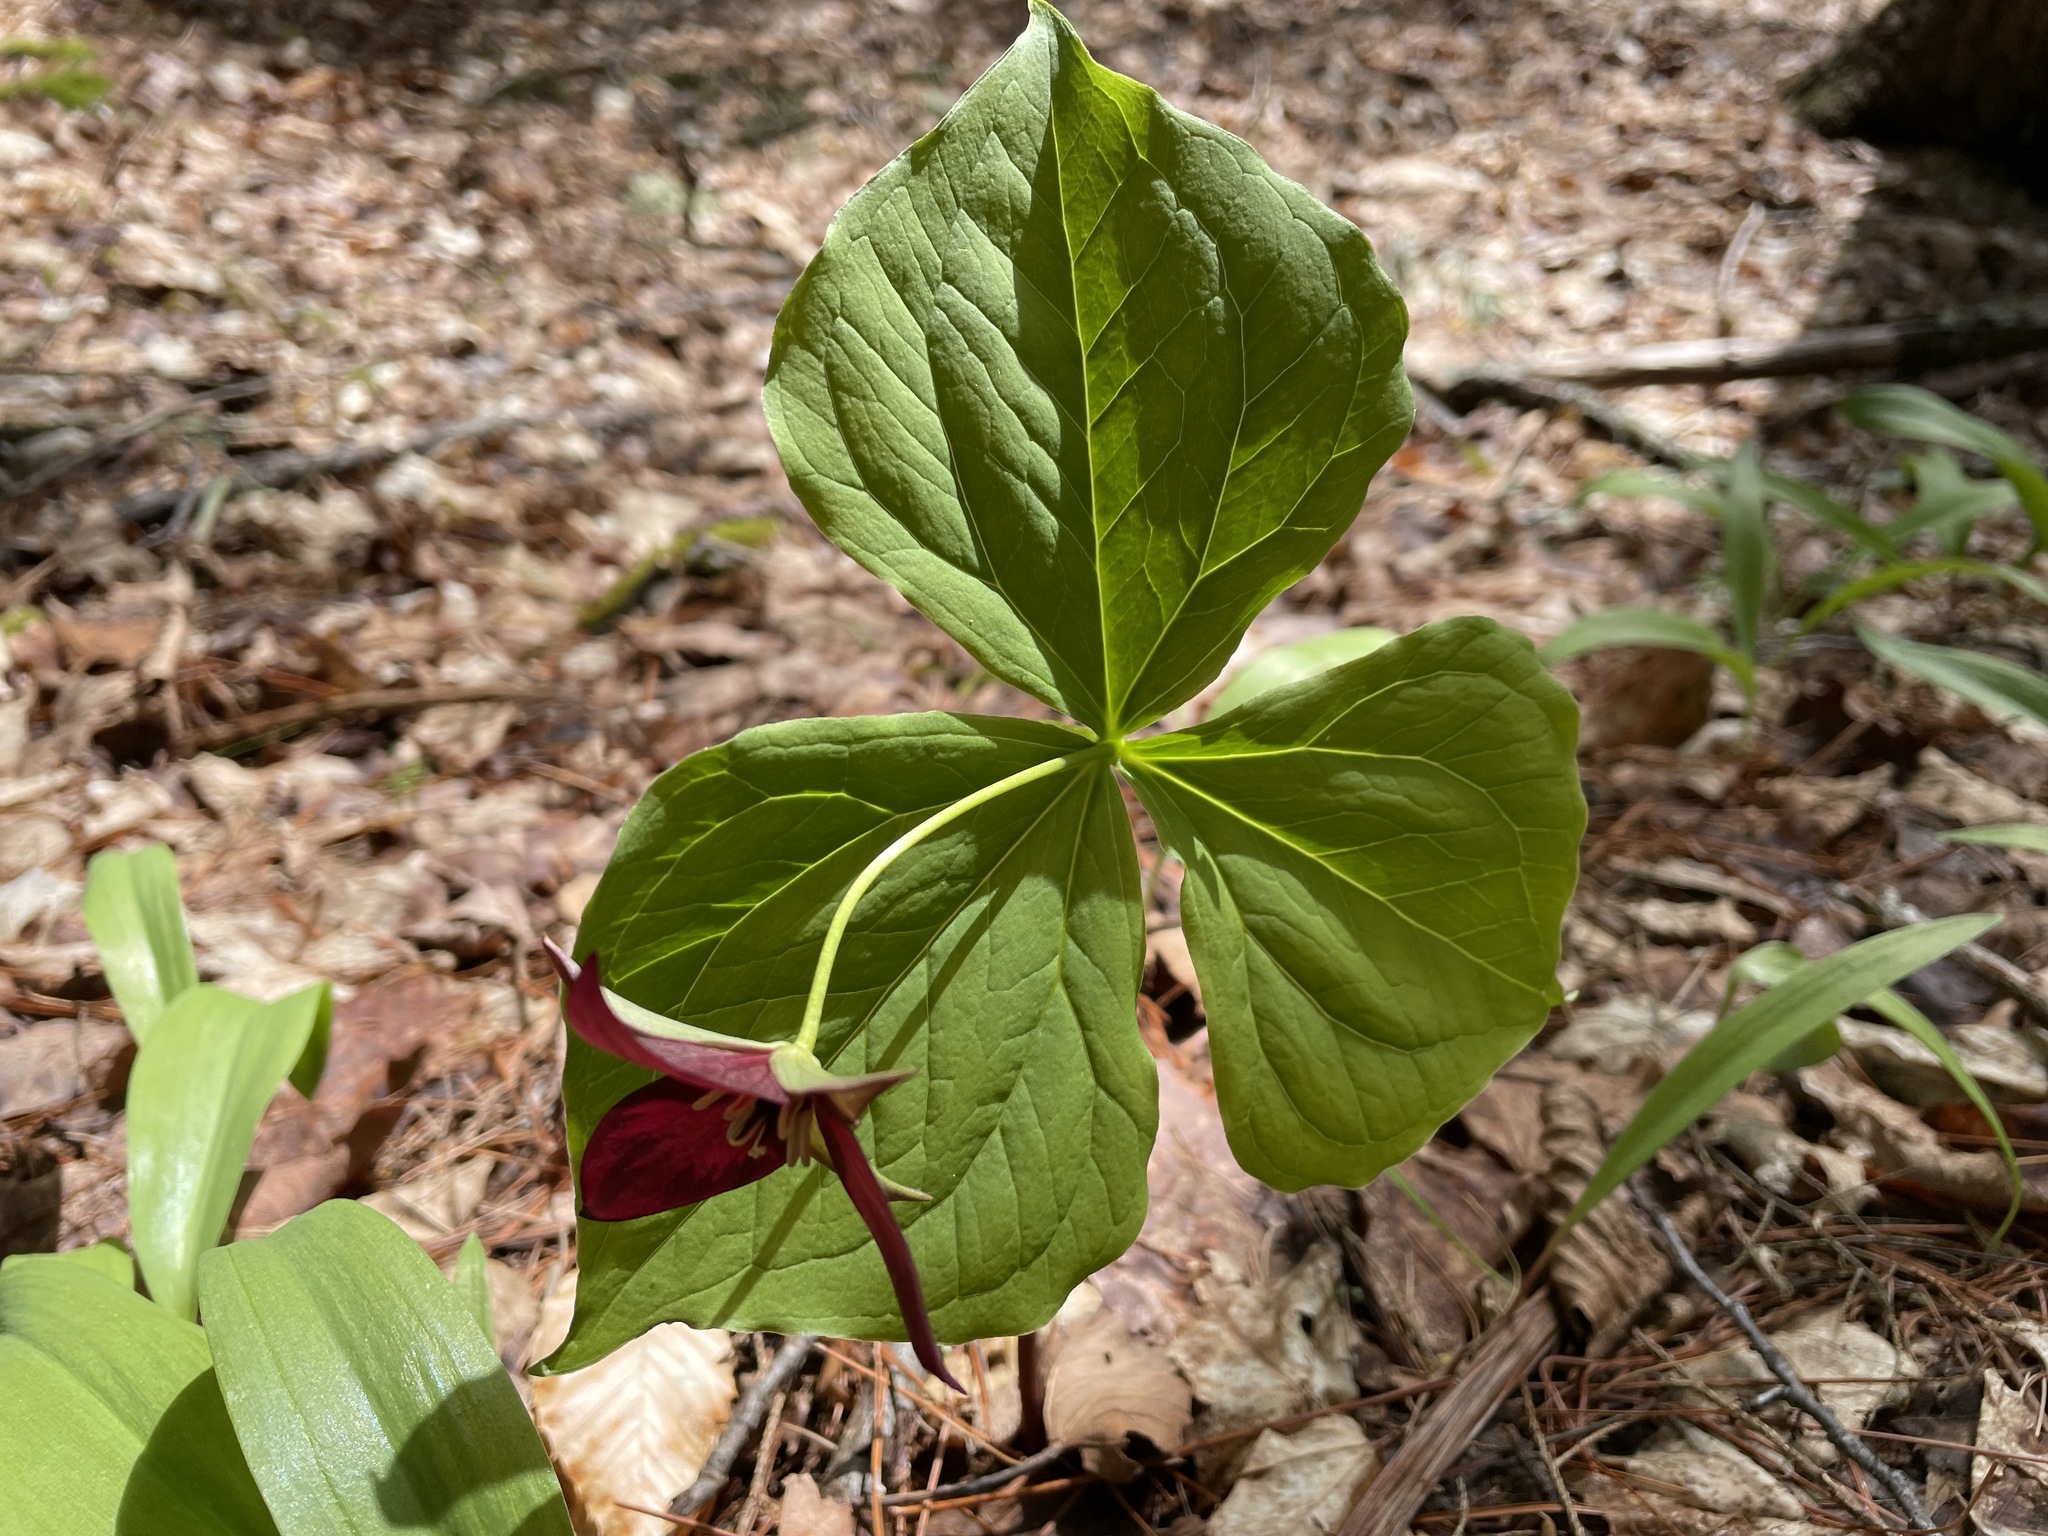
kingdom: Plantae
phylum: Tracheophyta
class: Liliopsida
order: Liliales
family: Melanthiaceae
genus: Trillium
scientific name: Trillium erectum
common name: Purple trillium
